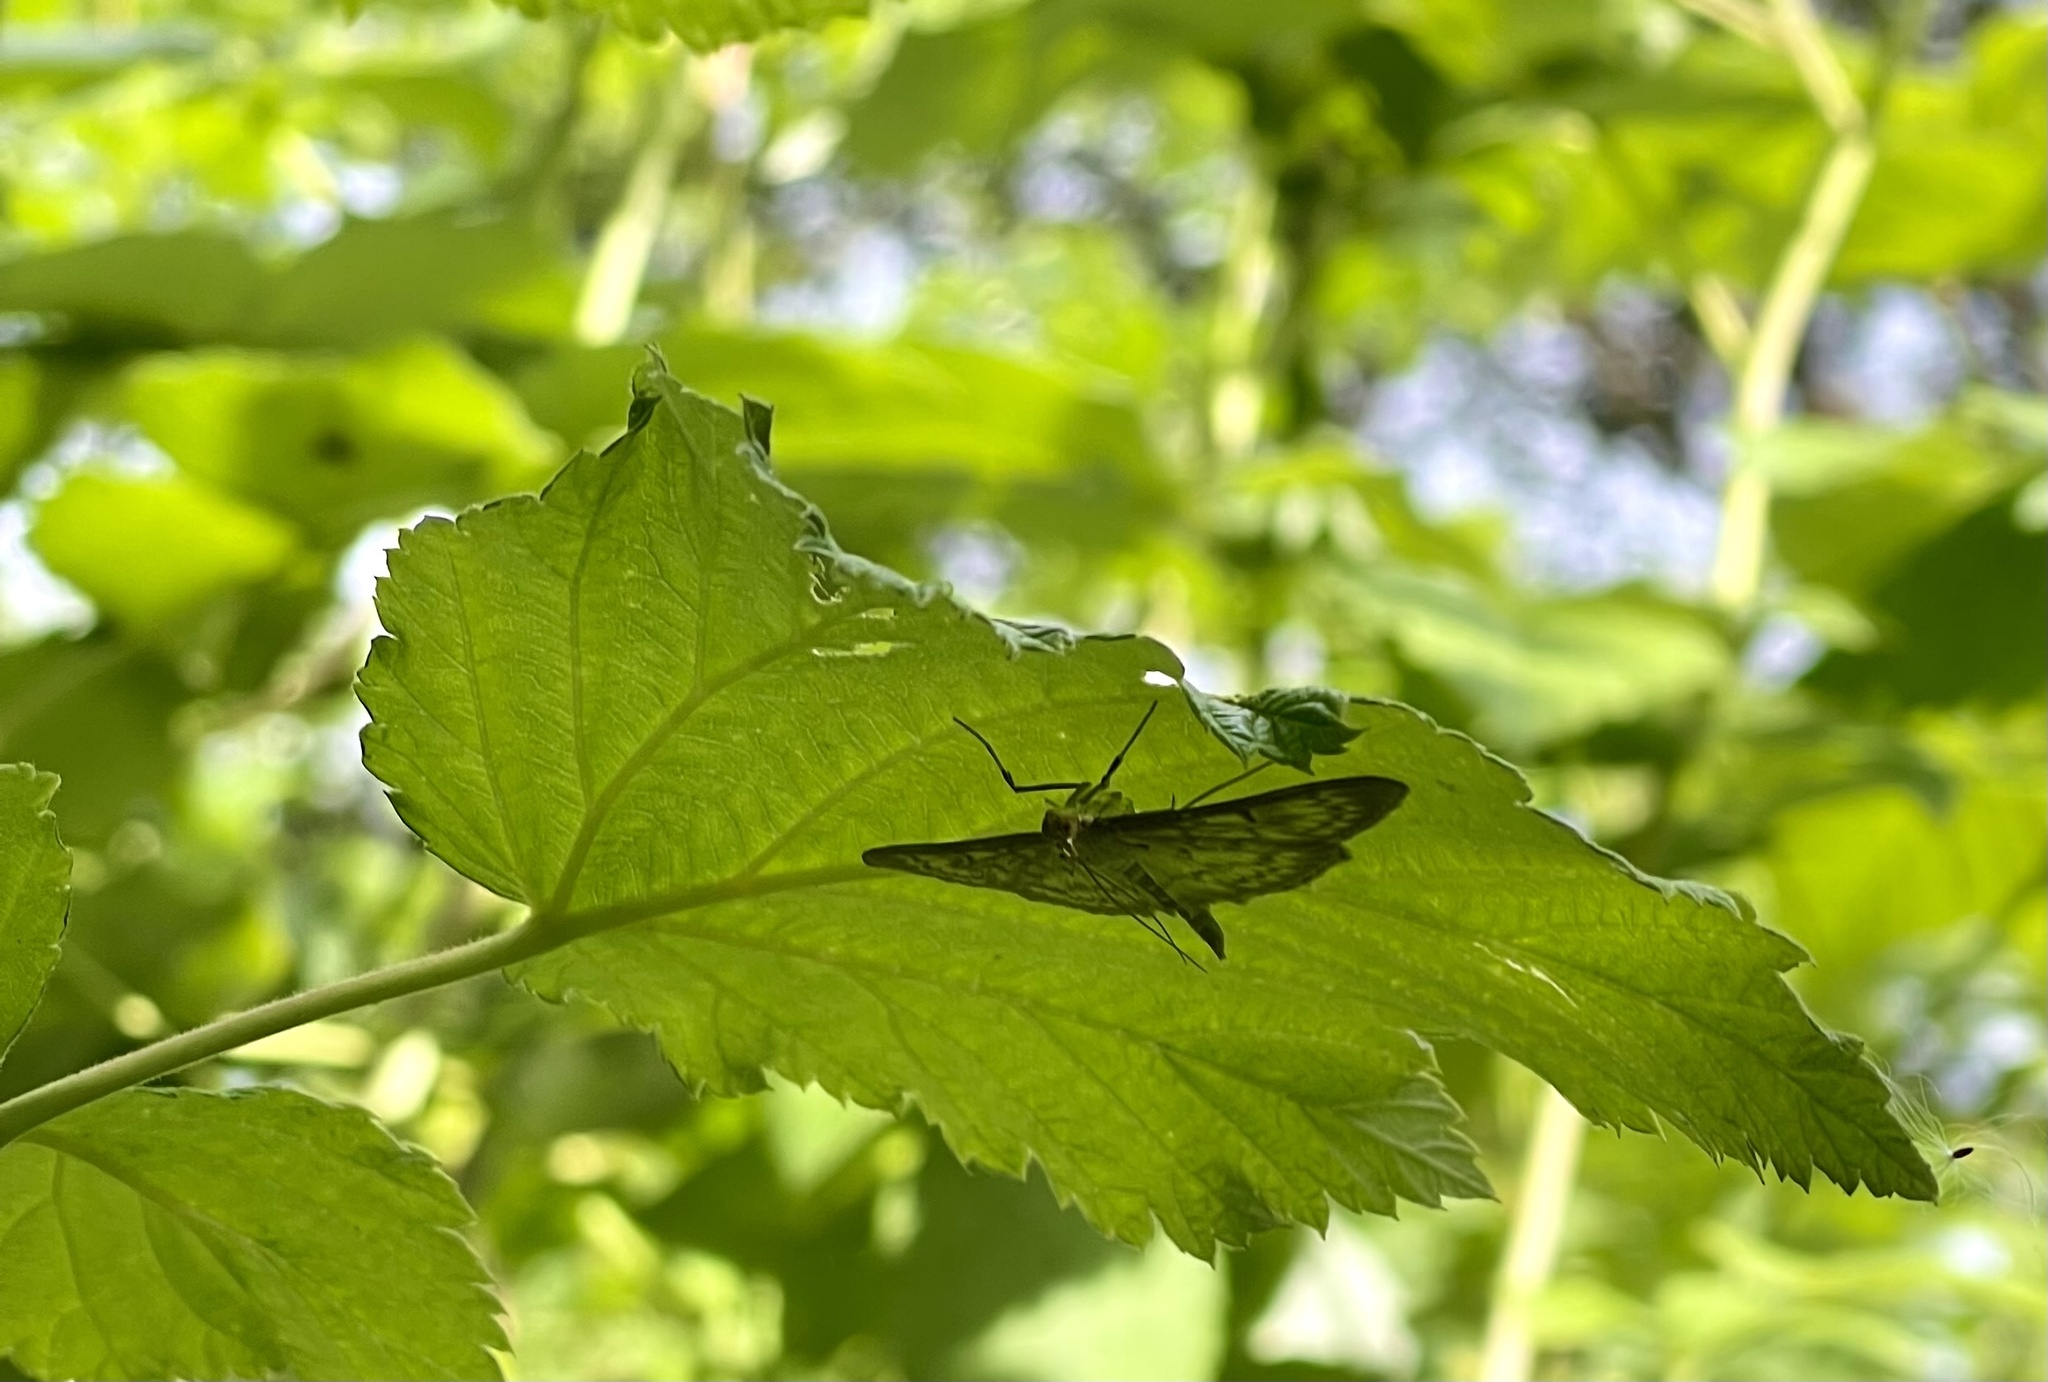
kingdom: Animalia
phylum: Arthropoda
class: Insecta
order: Lepidoptera
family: Crambidae
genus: Patania
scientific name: Patania ruralis
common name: Mother of pearl
